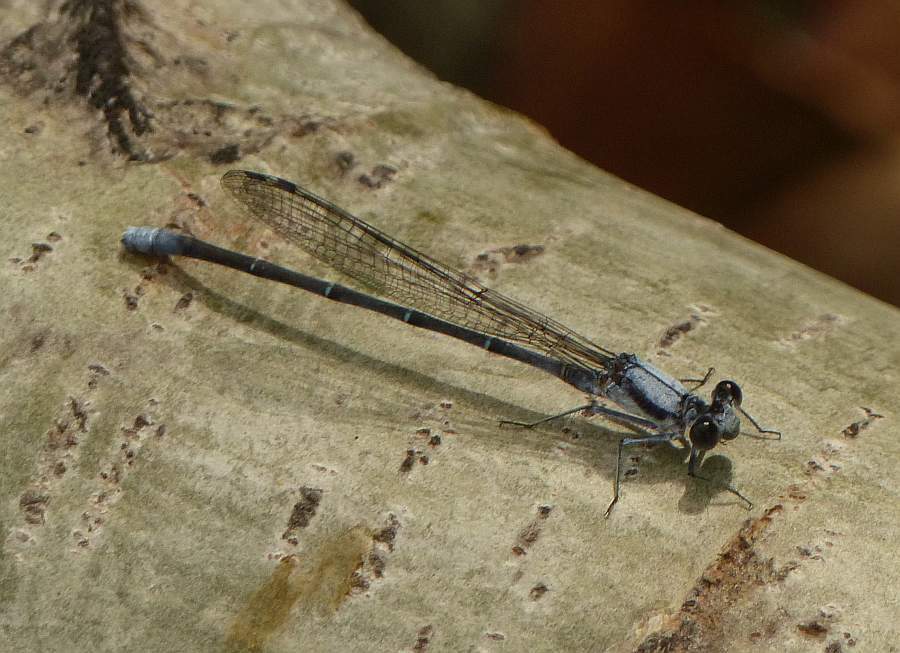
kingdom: Animalia
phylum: Arthropoda
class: Insecta
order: Odonata
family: Coenagrionidae
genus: Argia
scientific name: Argia moesta
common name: Powdered dancer
